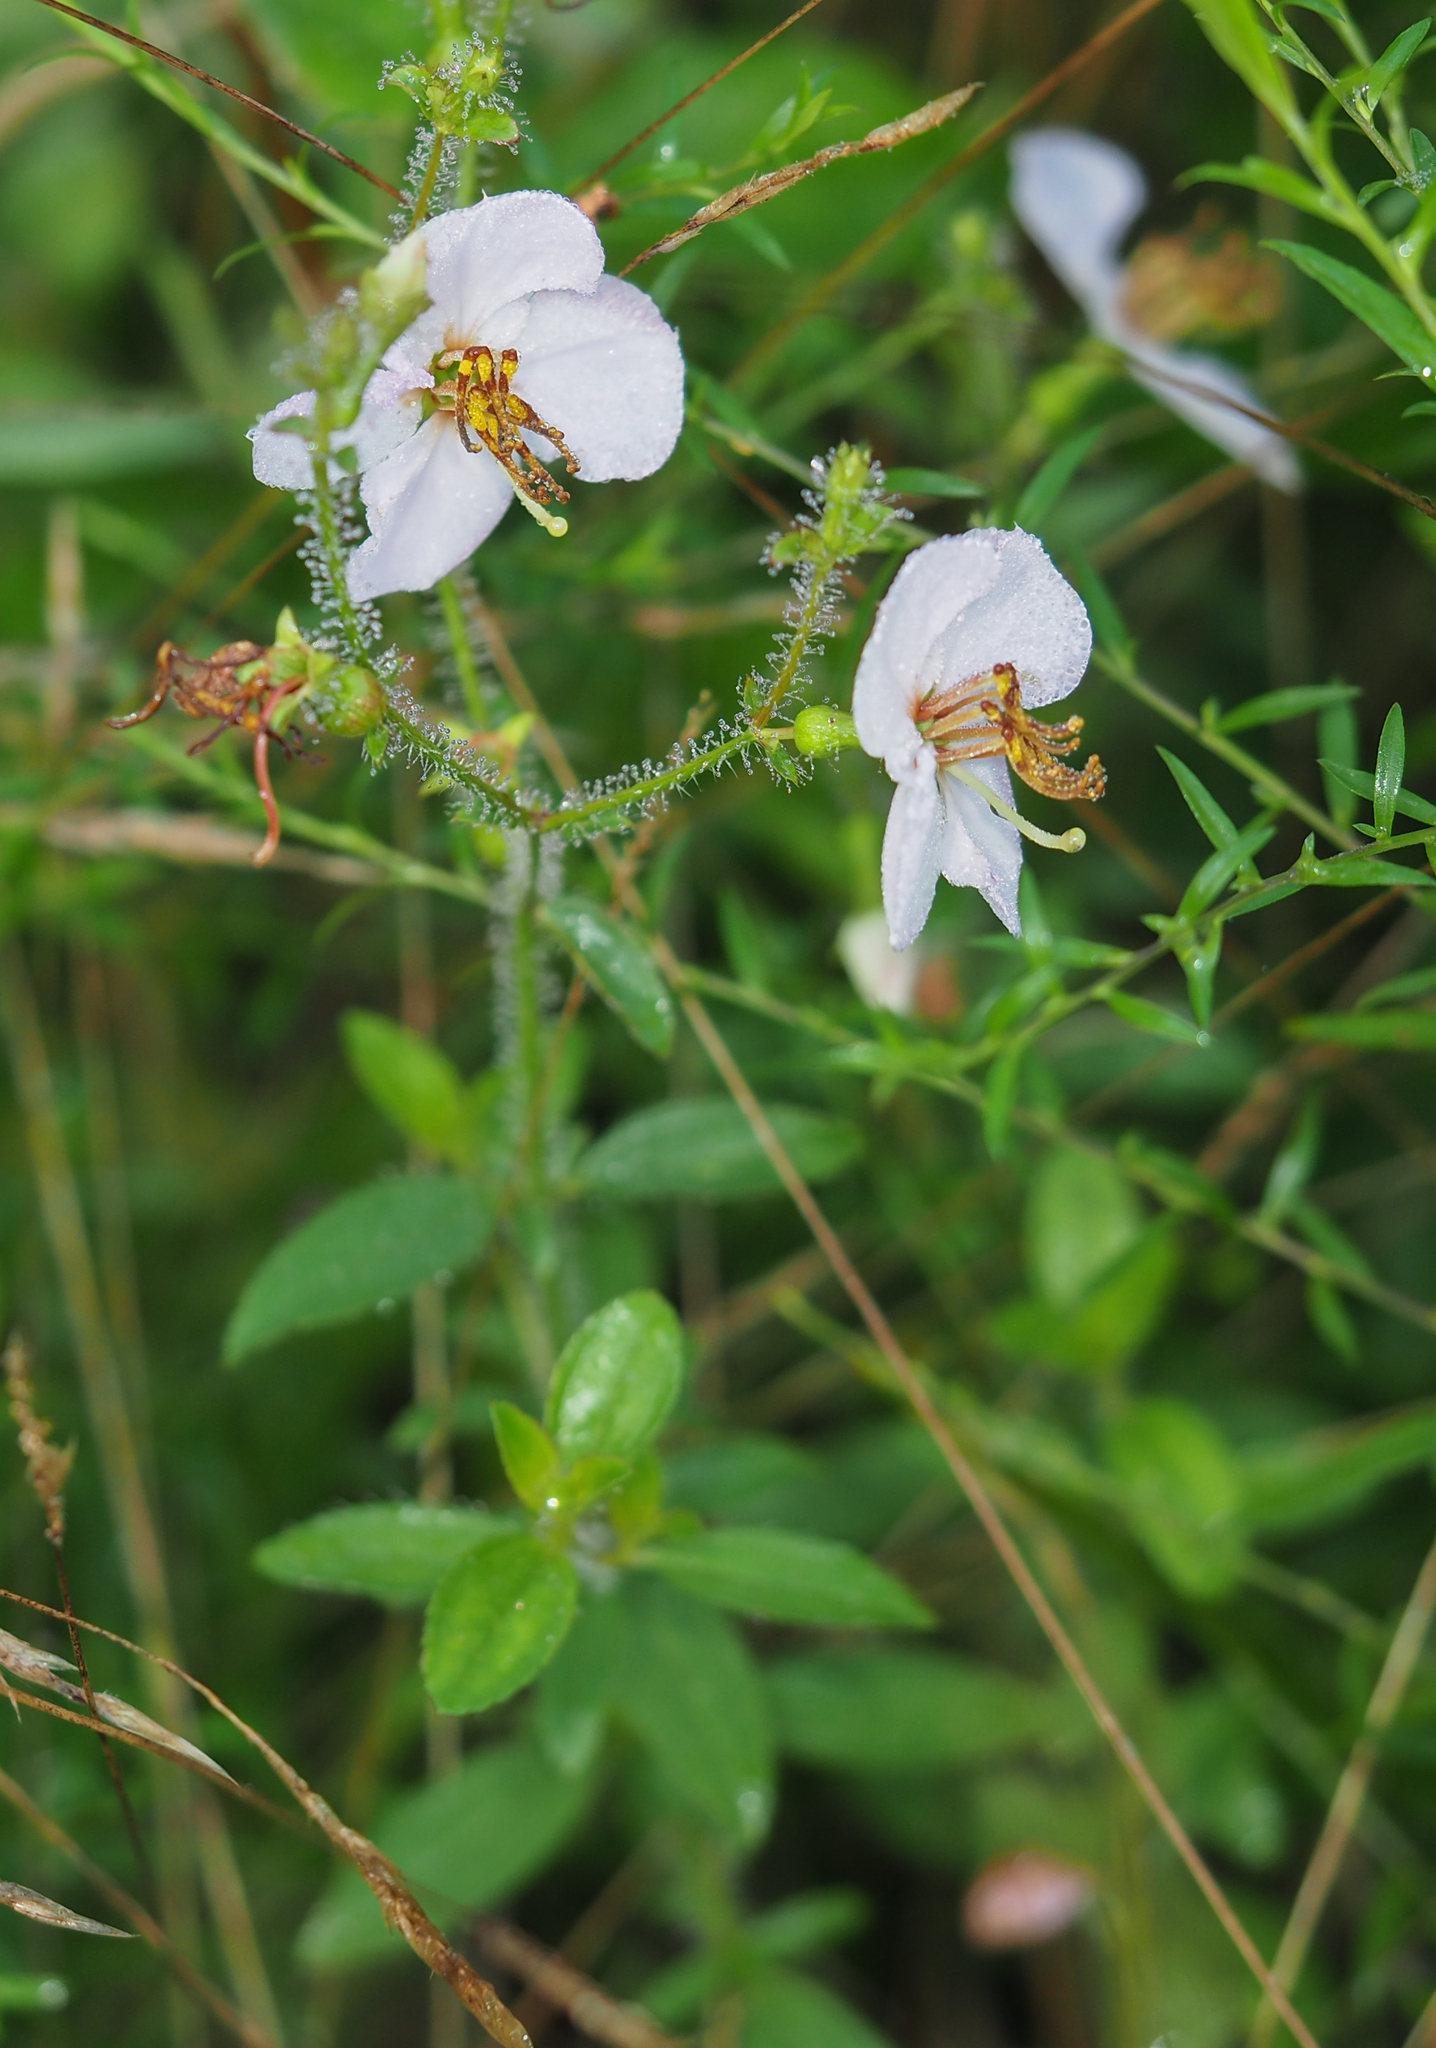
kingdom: Plantae
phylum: Tracheophyta
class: Magnoliopsida
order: Myrtales
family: Melastomataceae
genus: Rhexia
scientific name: Rhexia mariana
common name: Dull meadow-pitcher
